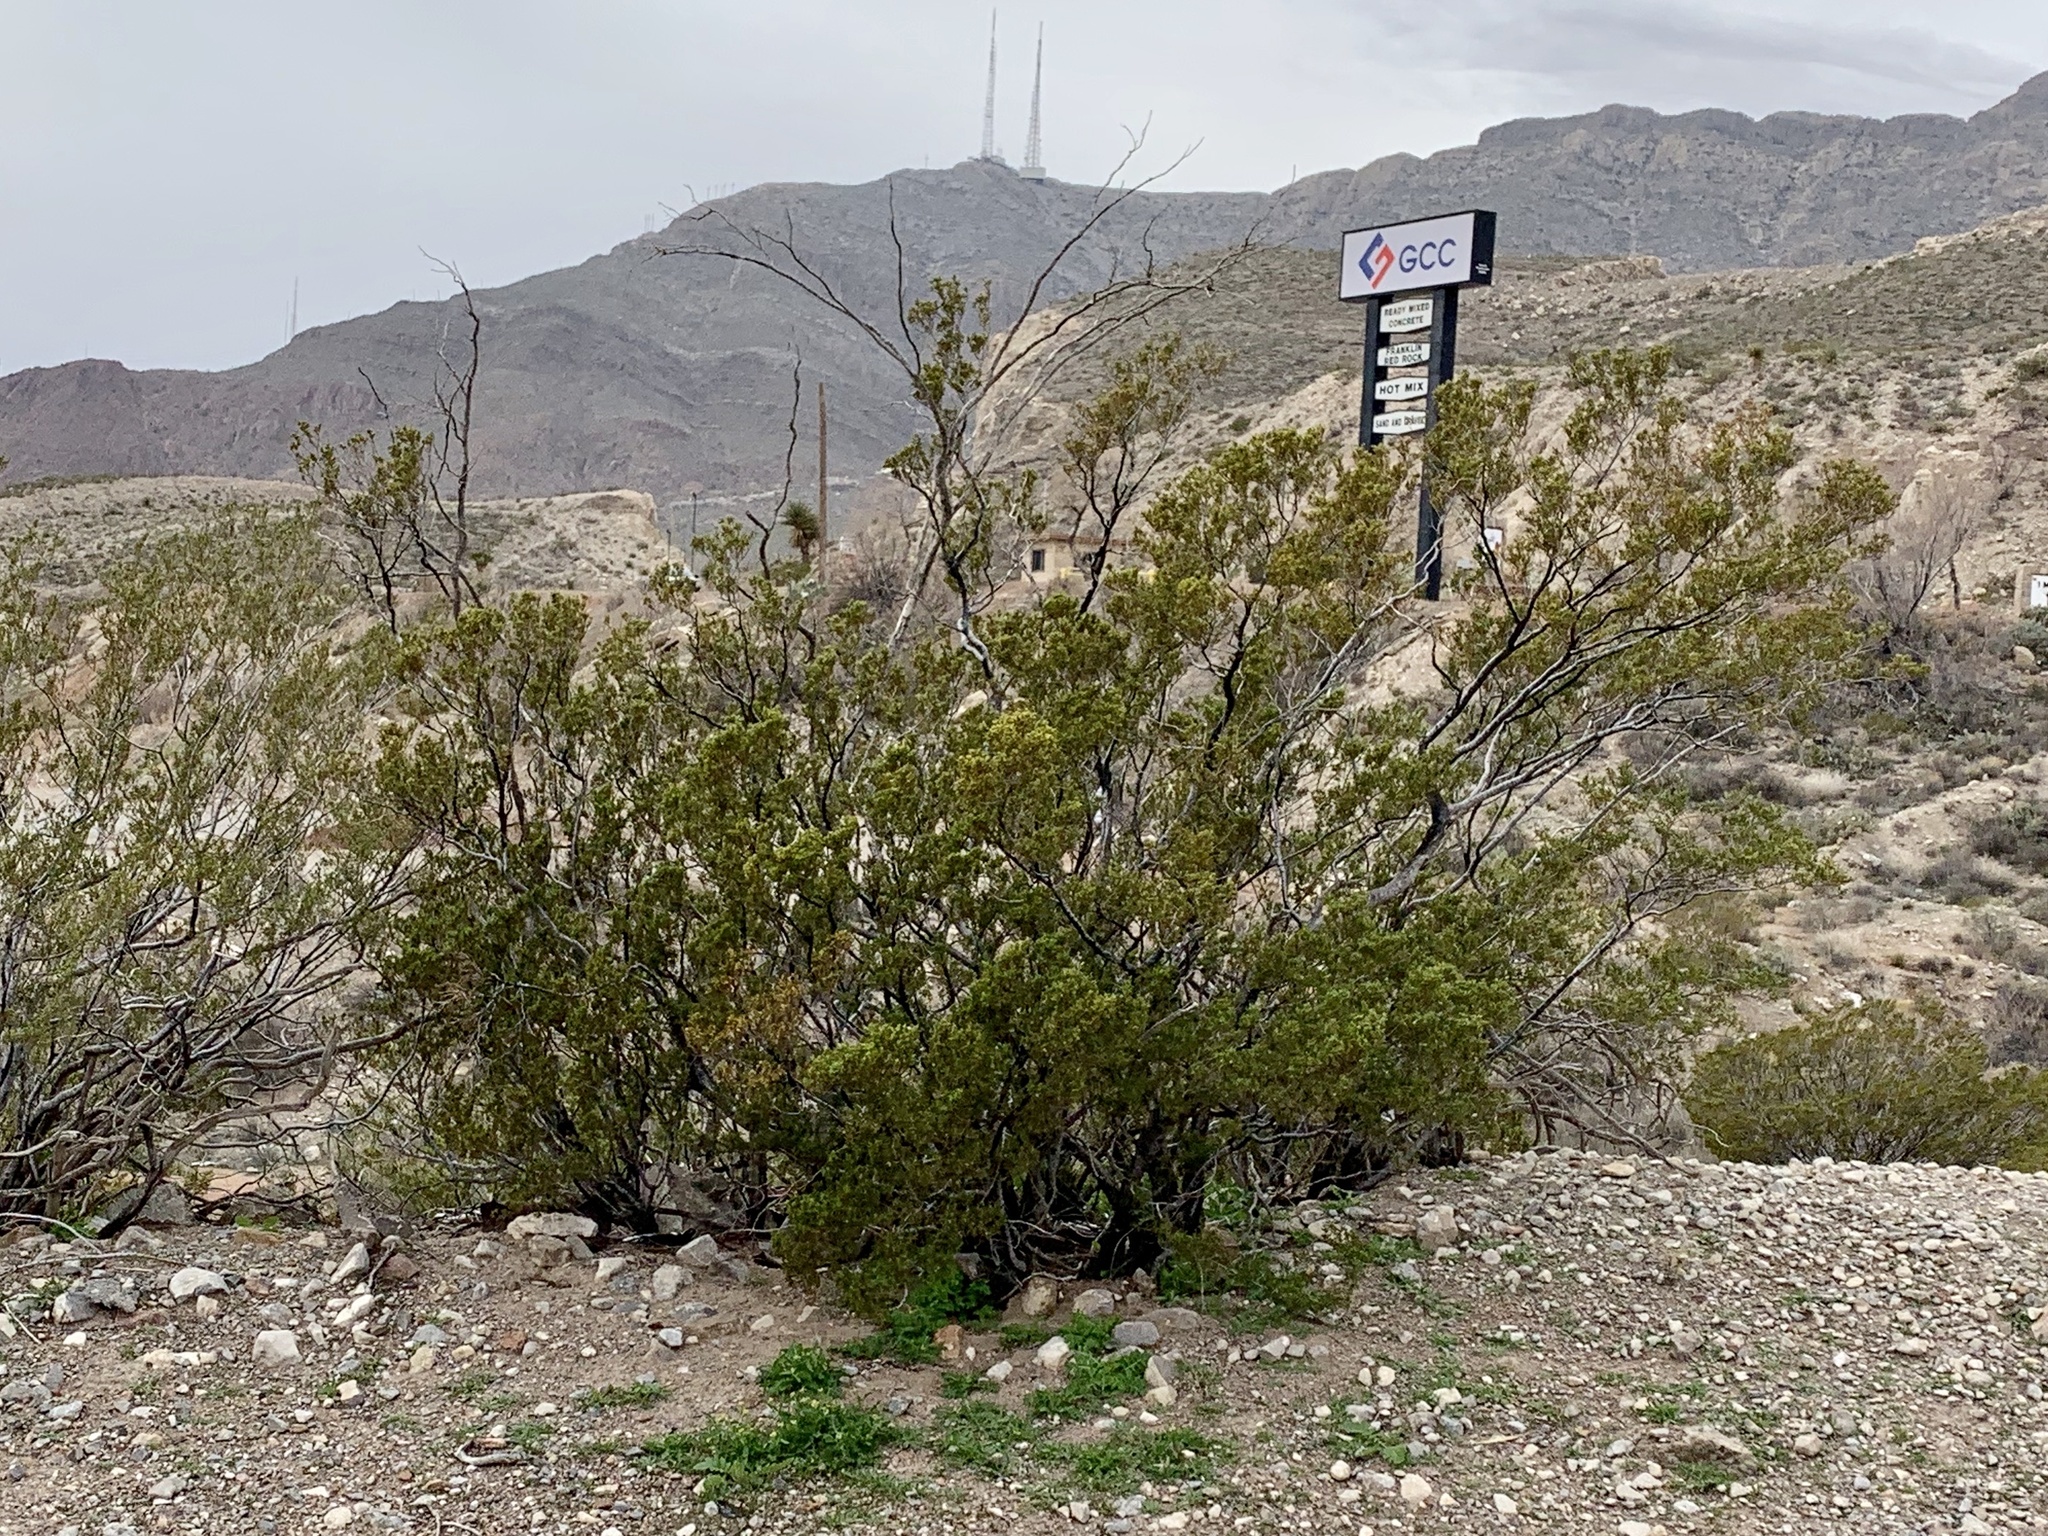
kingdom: Plantae
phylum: Tracheophyta
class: Magnoliopsida
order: Zygophyllales
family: Zygophyllaceae
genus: Larrea
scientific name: Larrea tridentata
